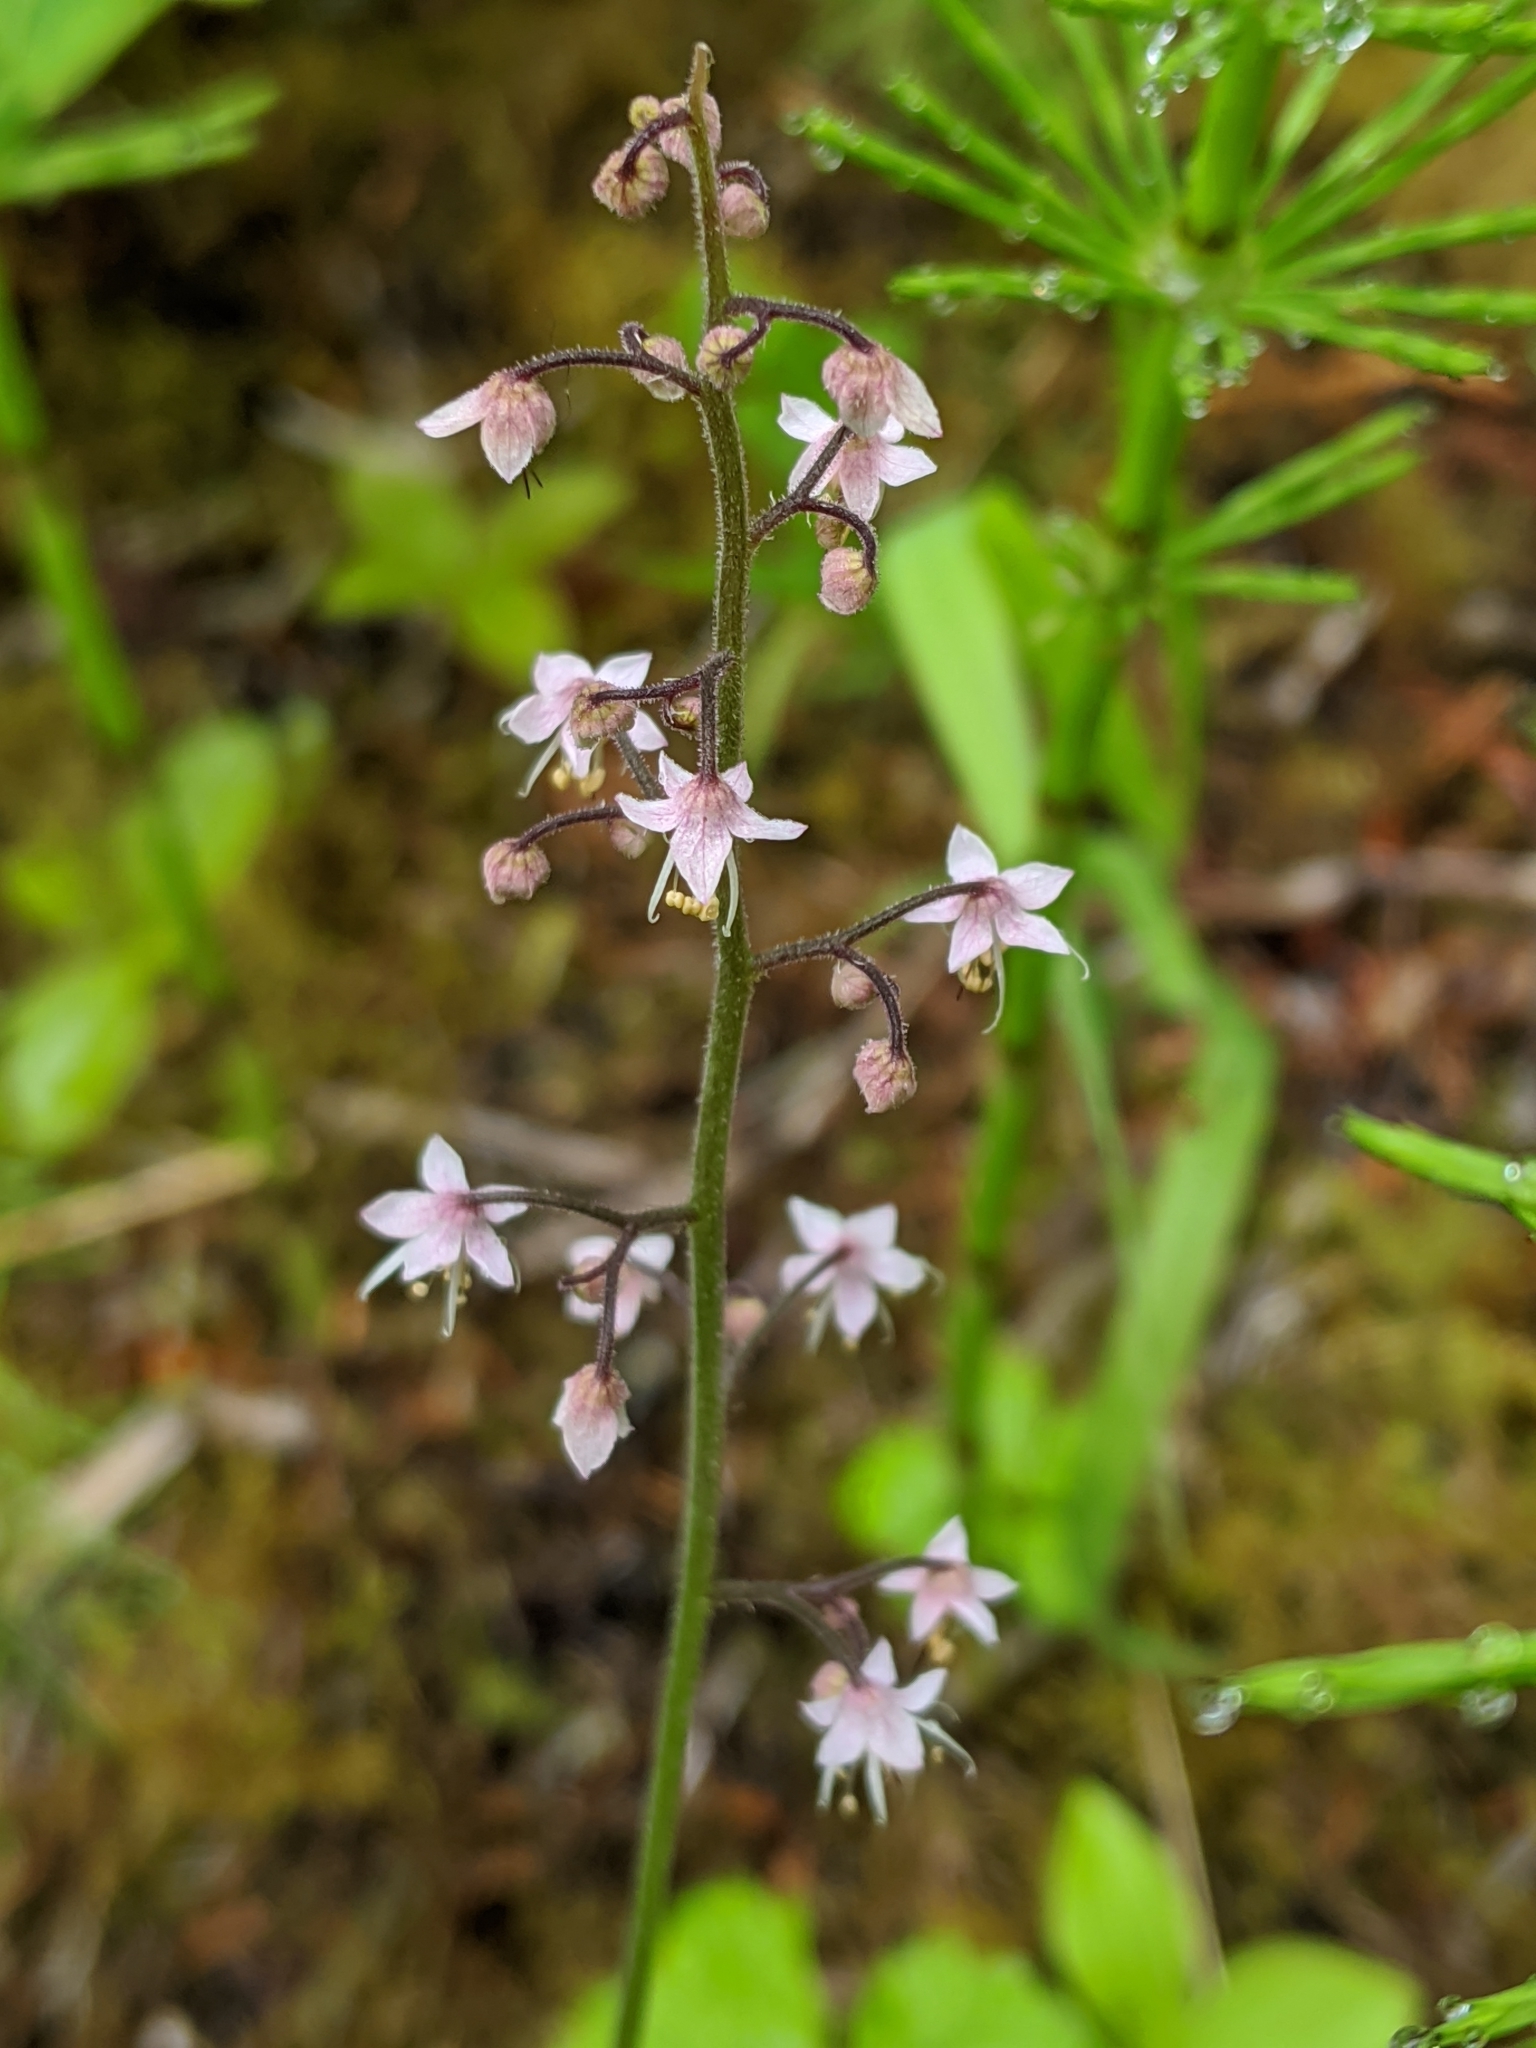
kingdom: Plantae
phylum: Tracheophyta
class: Magnoliopsida
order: Saxifragales
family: Saxifragaceae
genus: Tiarella
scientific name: Tiarella trifoliata
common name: Sugar-scoop
